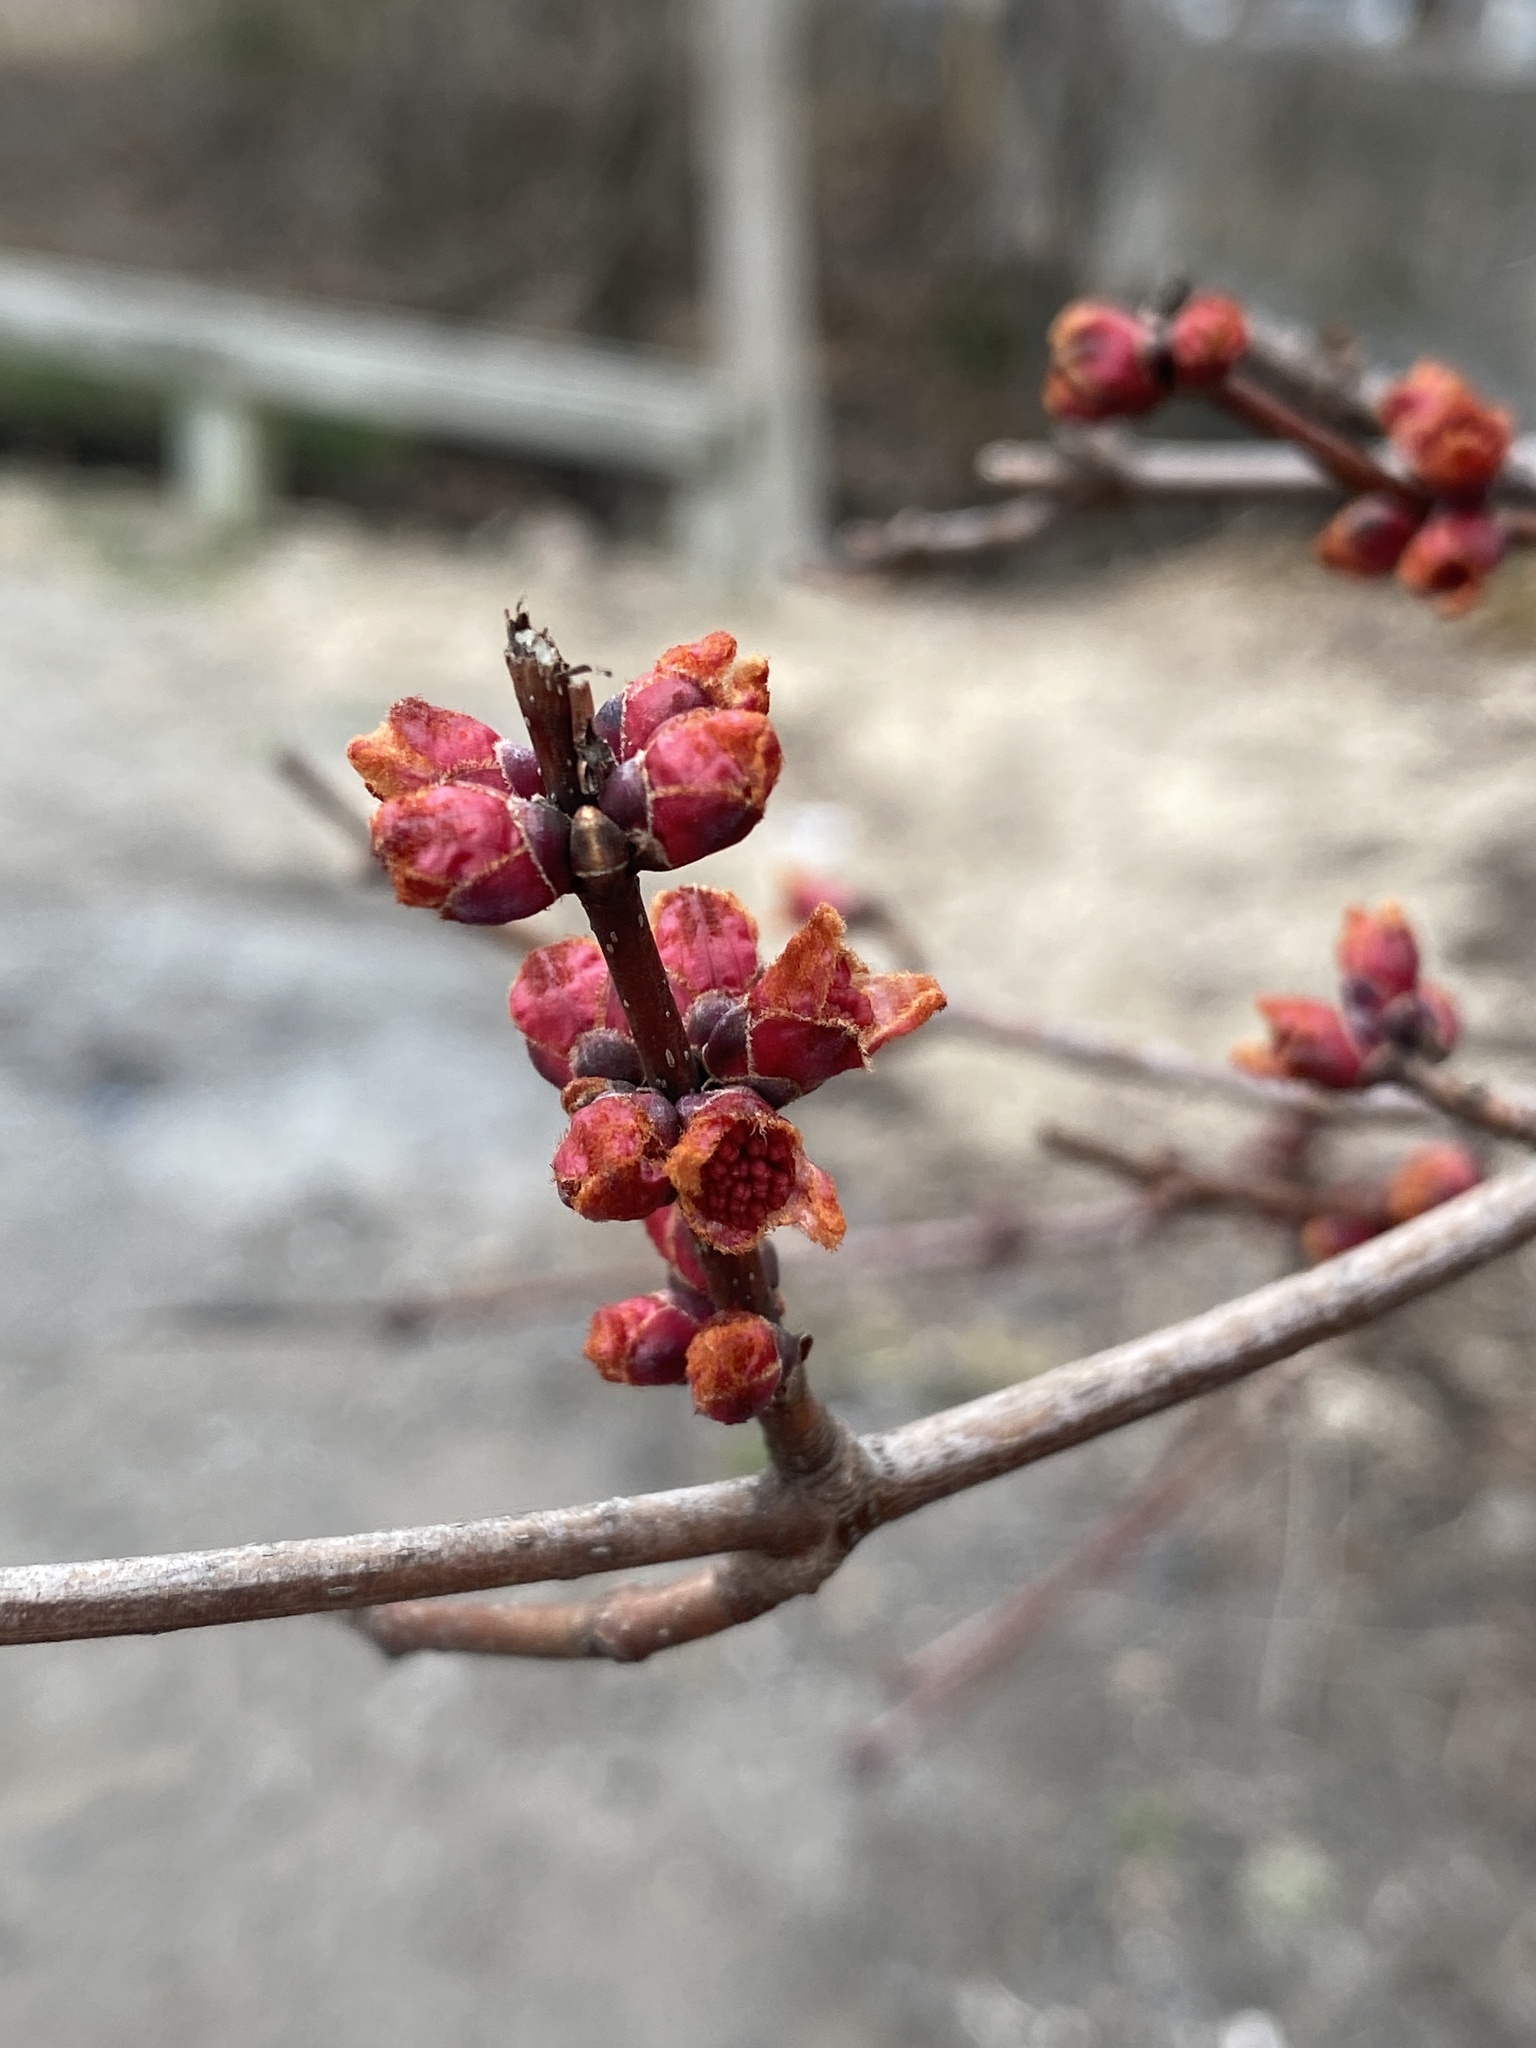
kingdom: Plantae
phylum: Tracheophyta
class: Magnoliopsida
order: Sapindales
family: Sapindaceae
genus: Acer
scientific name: Acer saccharinum
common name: Silver maple
